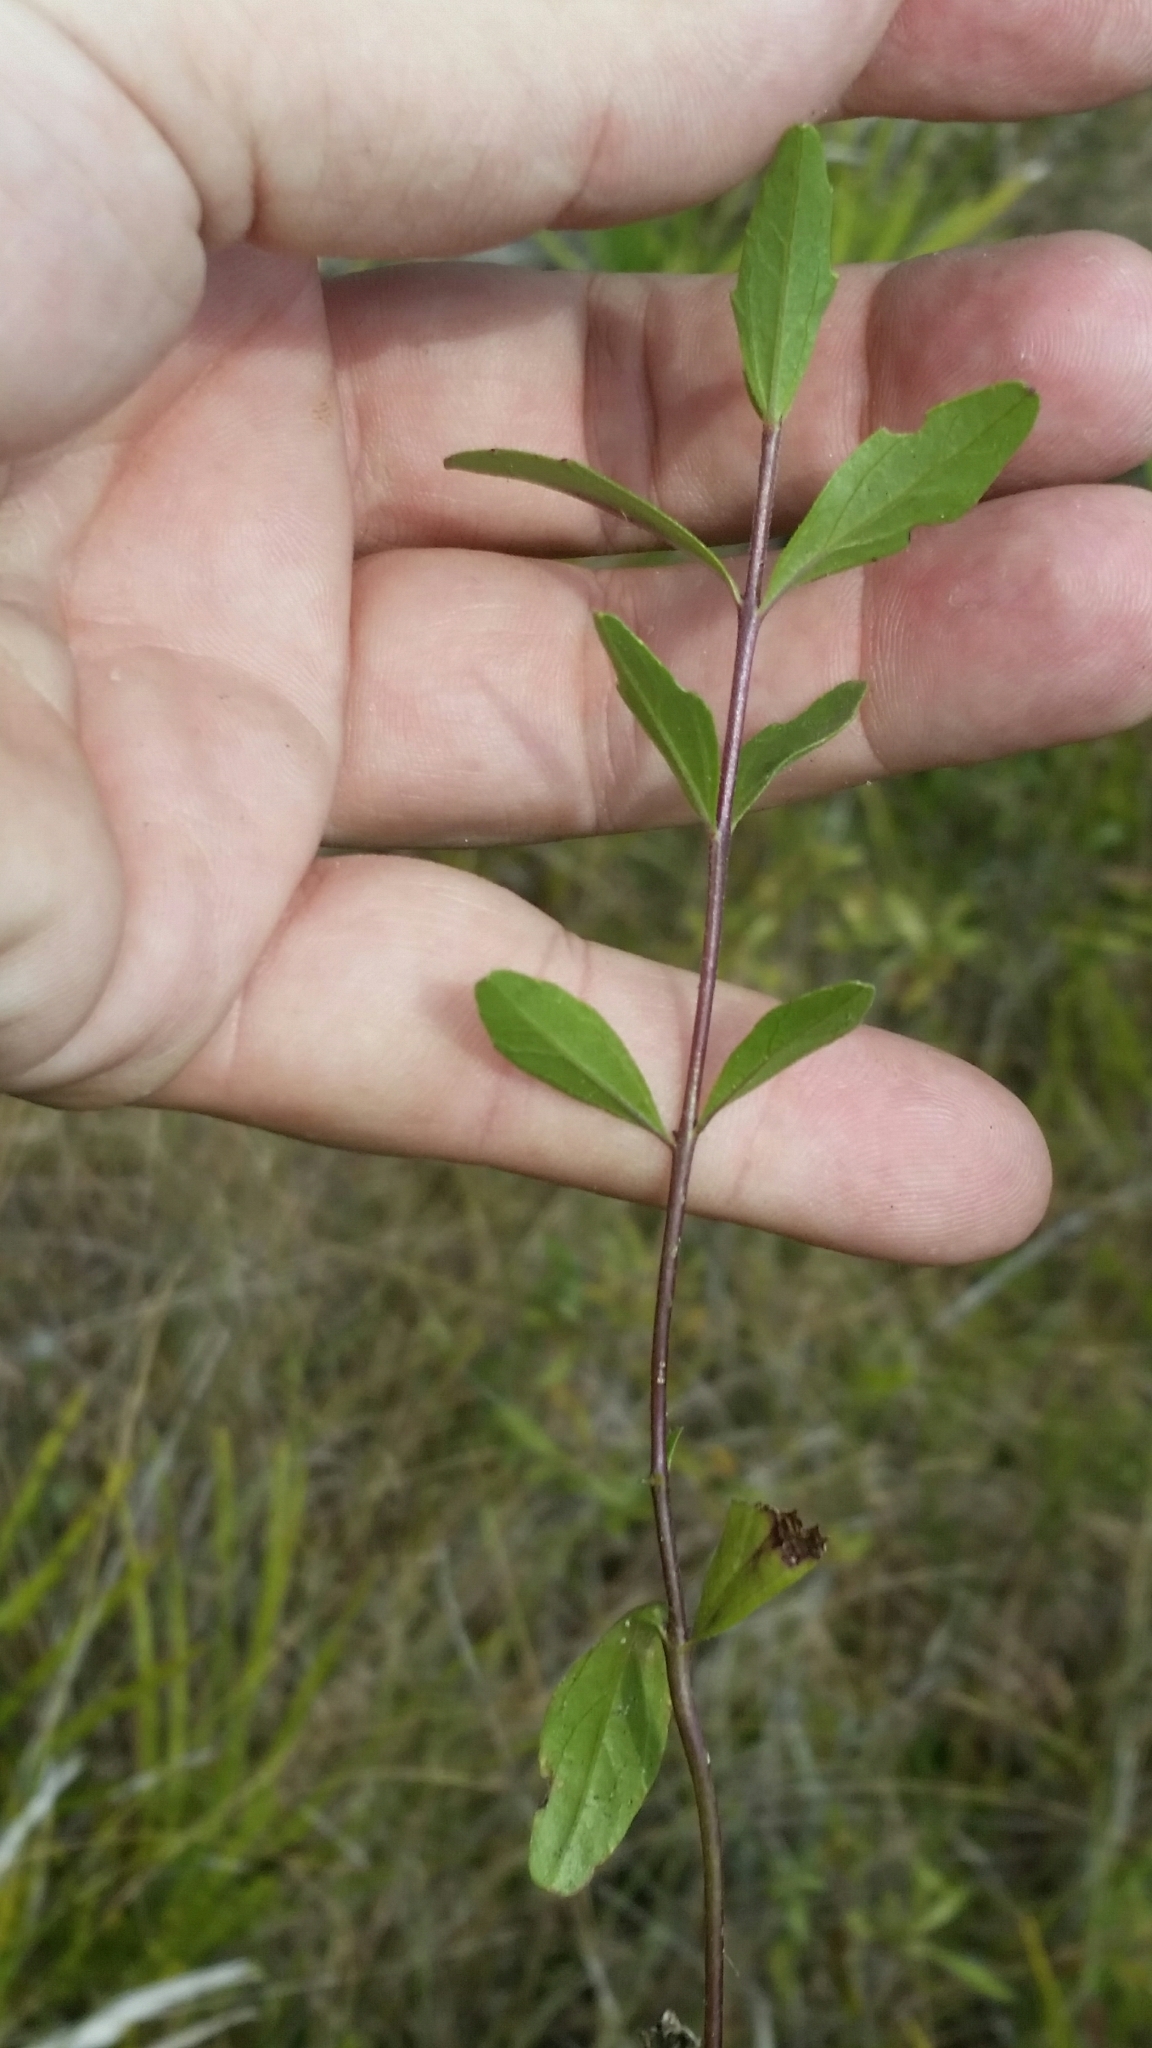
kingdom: Plantae
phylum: Tracheophyta
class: Magnoliopsida
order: Lamiales
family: Orobanchaceae
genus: Buchnera
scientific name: Buchnera floridana
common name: Florida bluehearts
